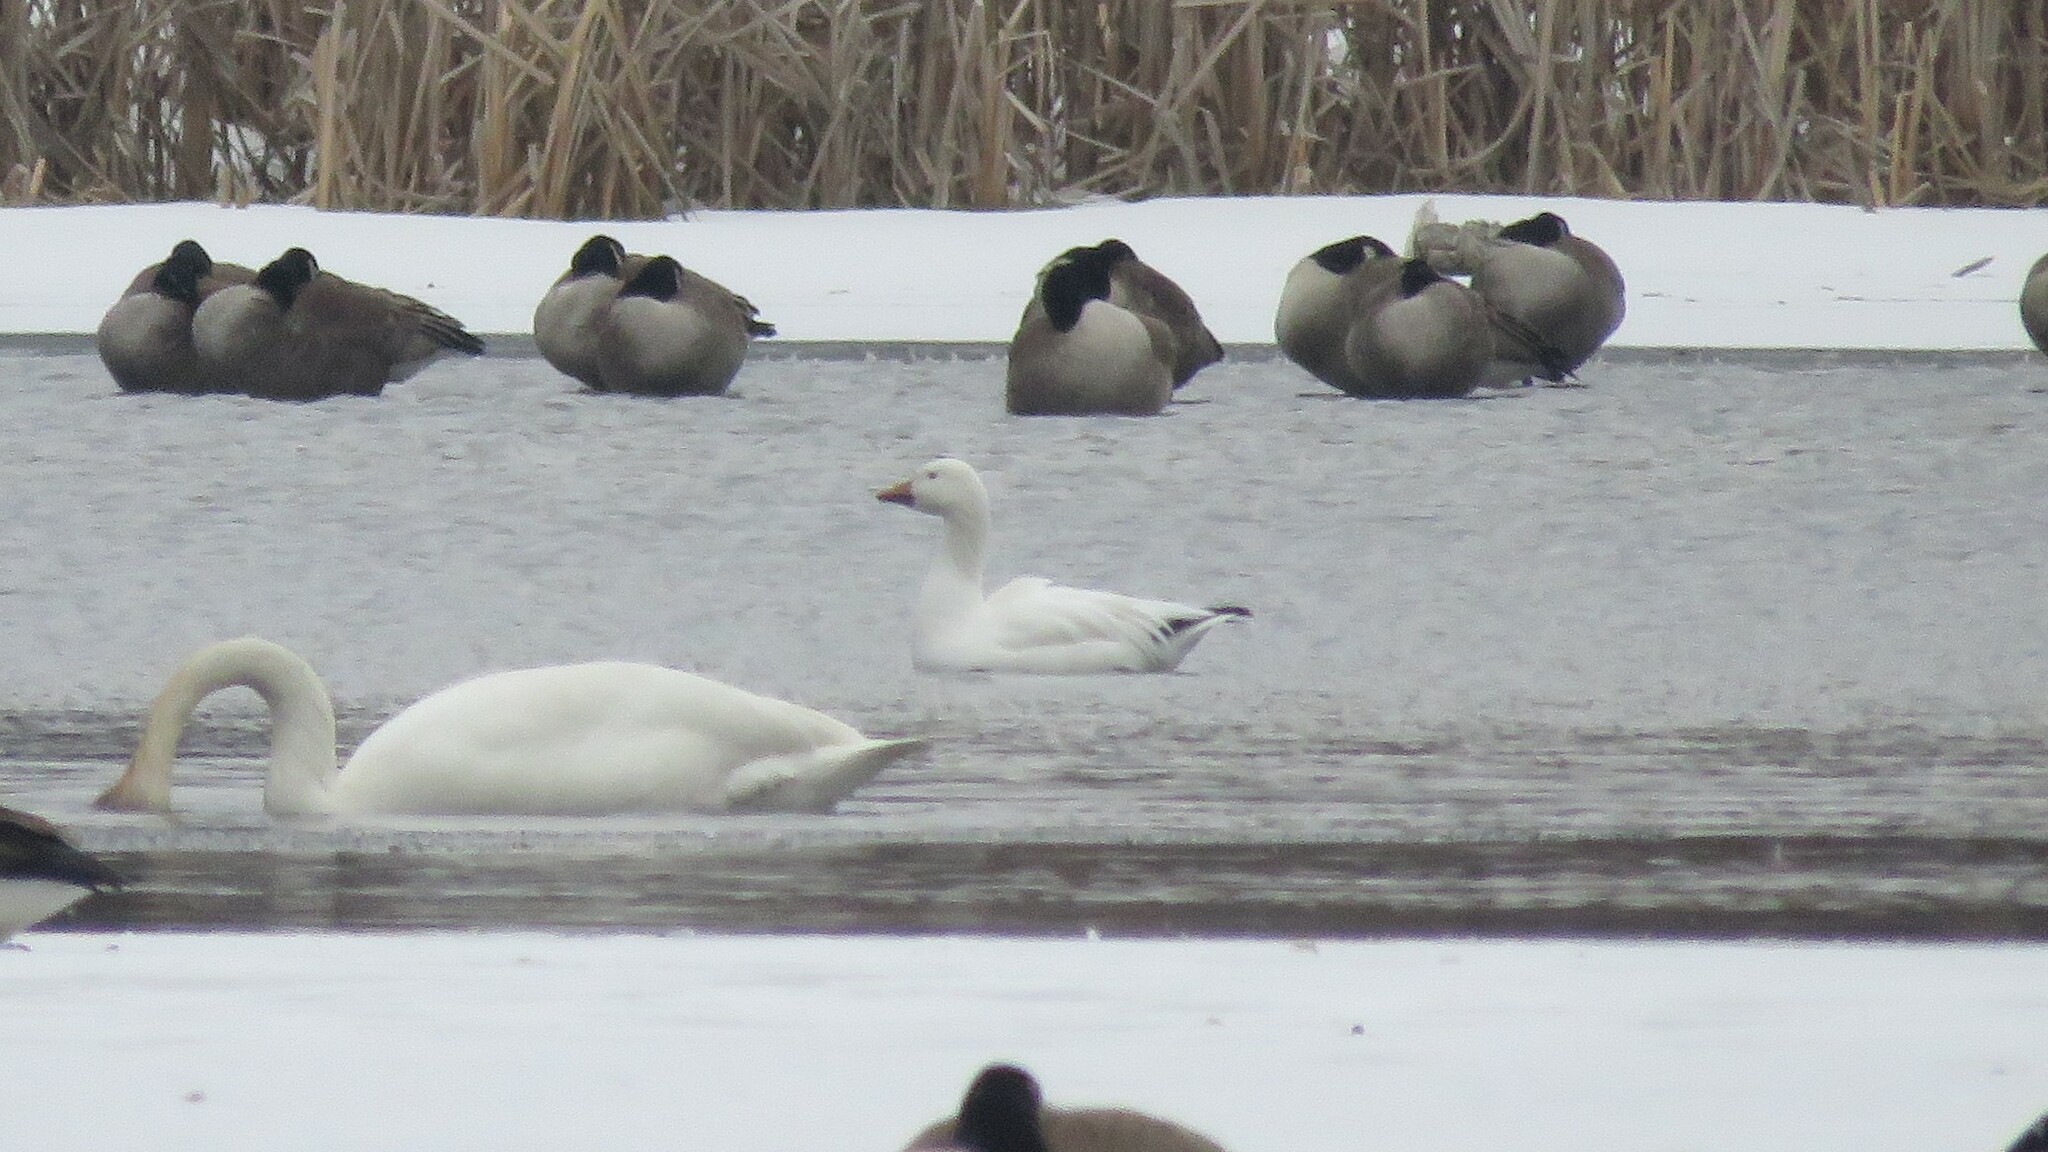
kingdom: Animalia
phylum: Chordata
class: Aves
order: Anseriformes
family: Anatidae
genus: Anser
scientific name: Anser caerulescens
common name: Snow goose
